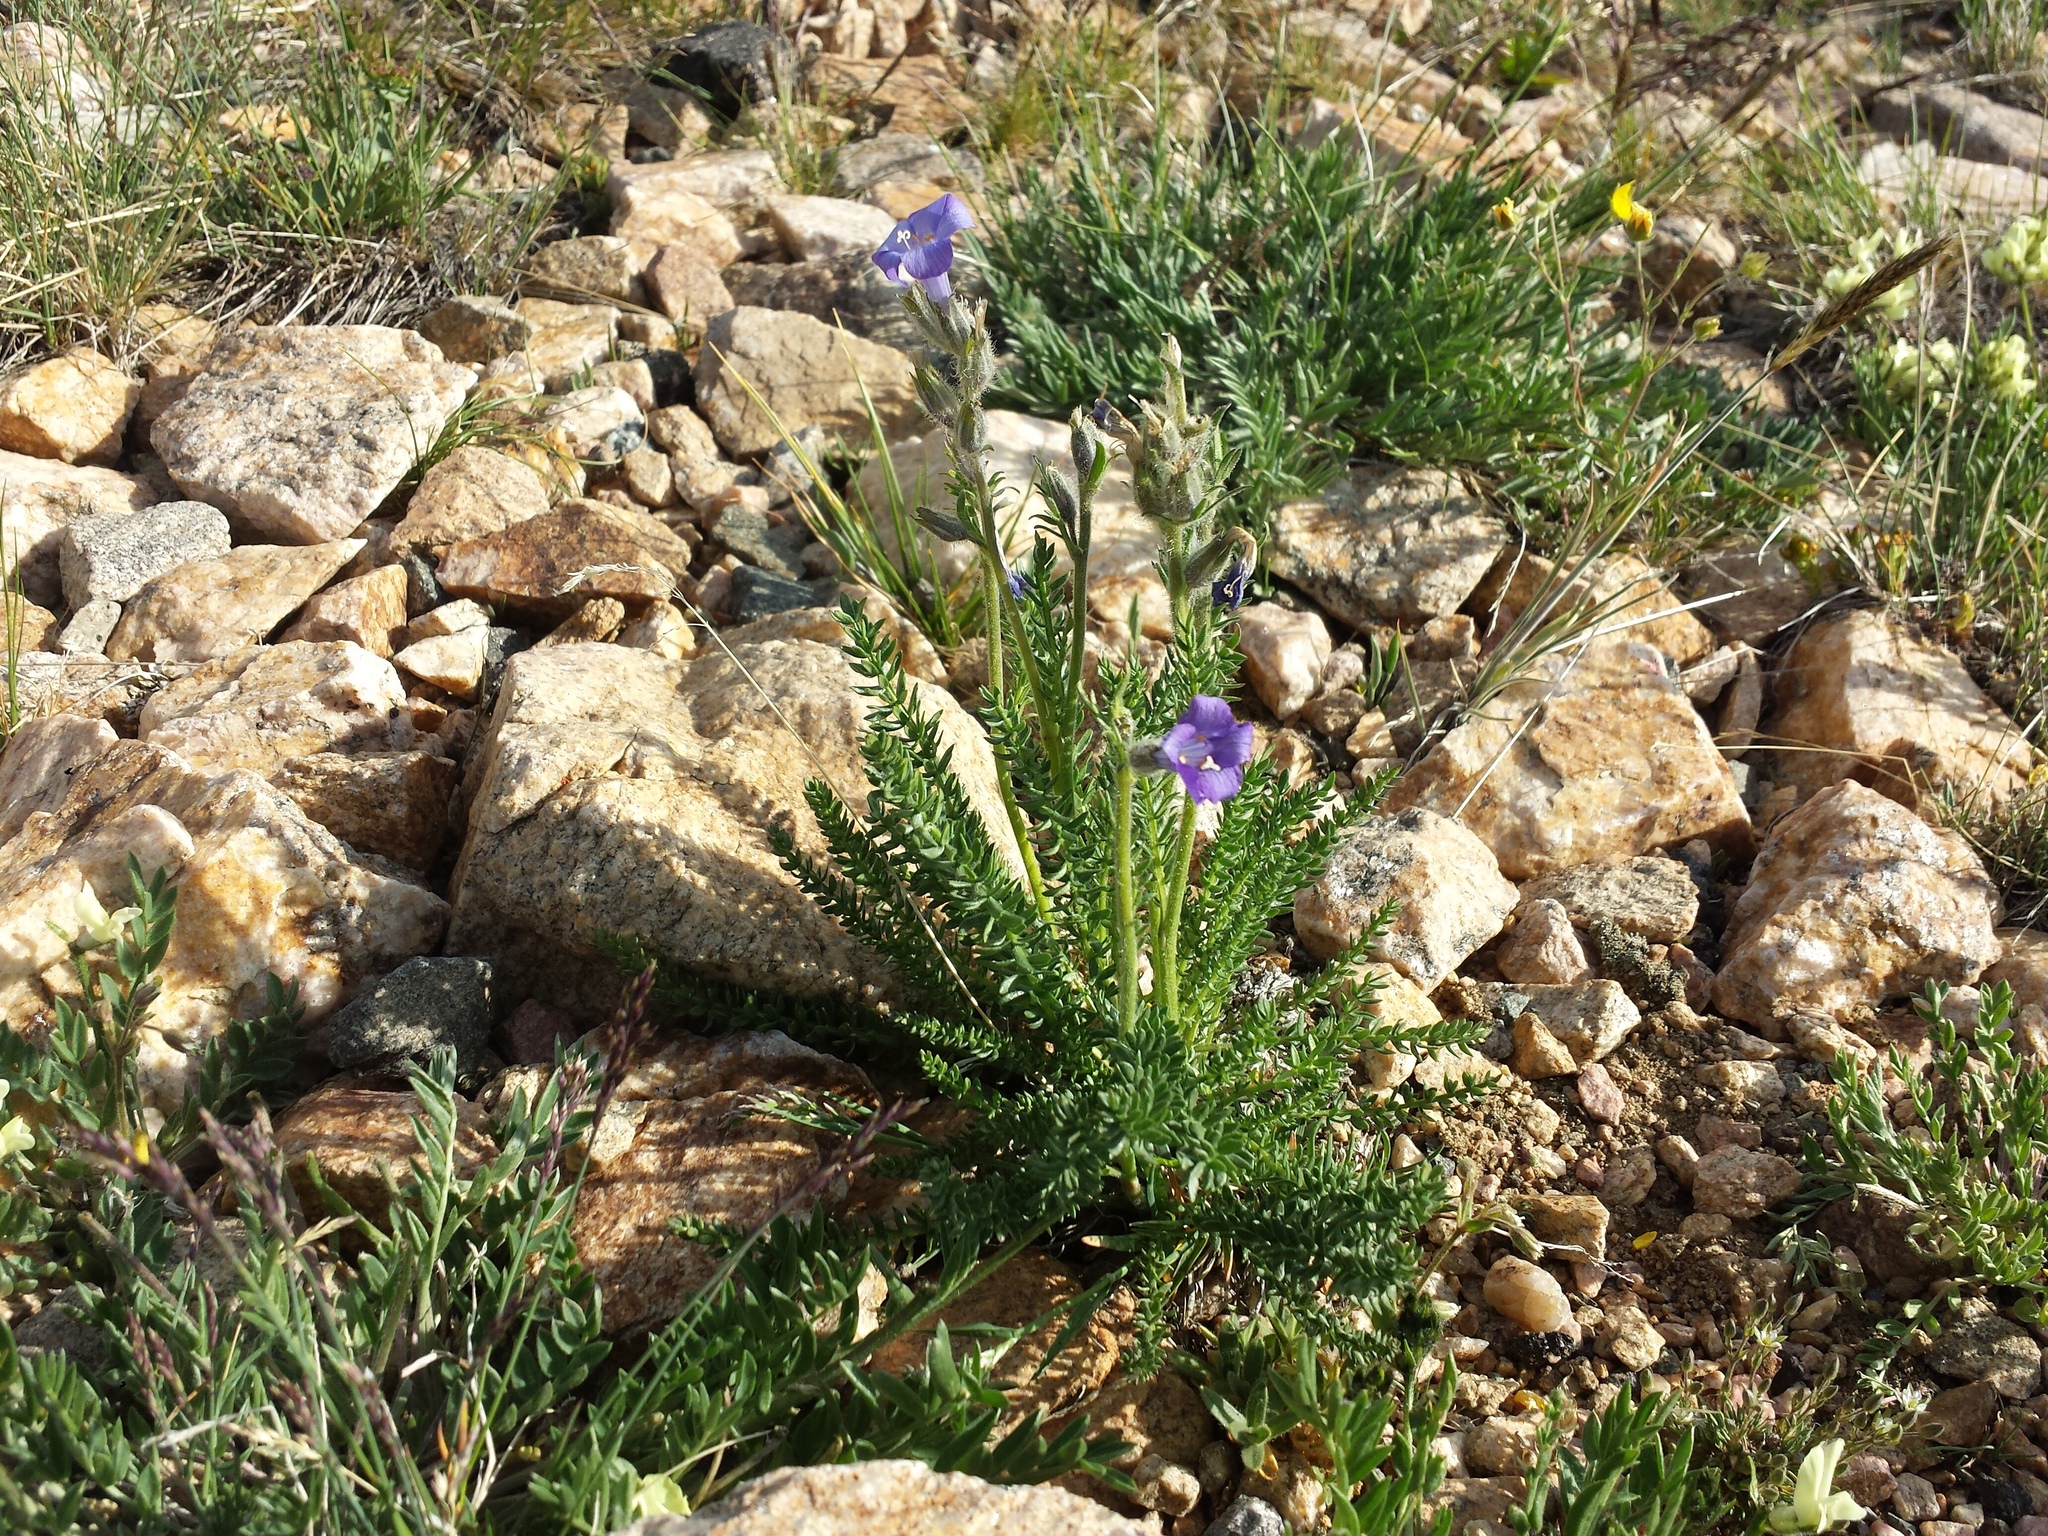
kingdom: Plantae
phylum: Tracheophyta
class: Magnoliopsida
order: Ericales
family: Polemoniaceae
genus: Polemonium
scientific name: Polemonium viscosum
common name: Skunk jacob's-ladder
